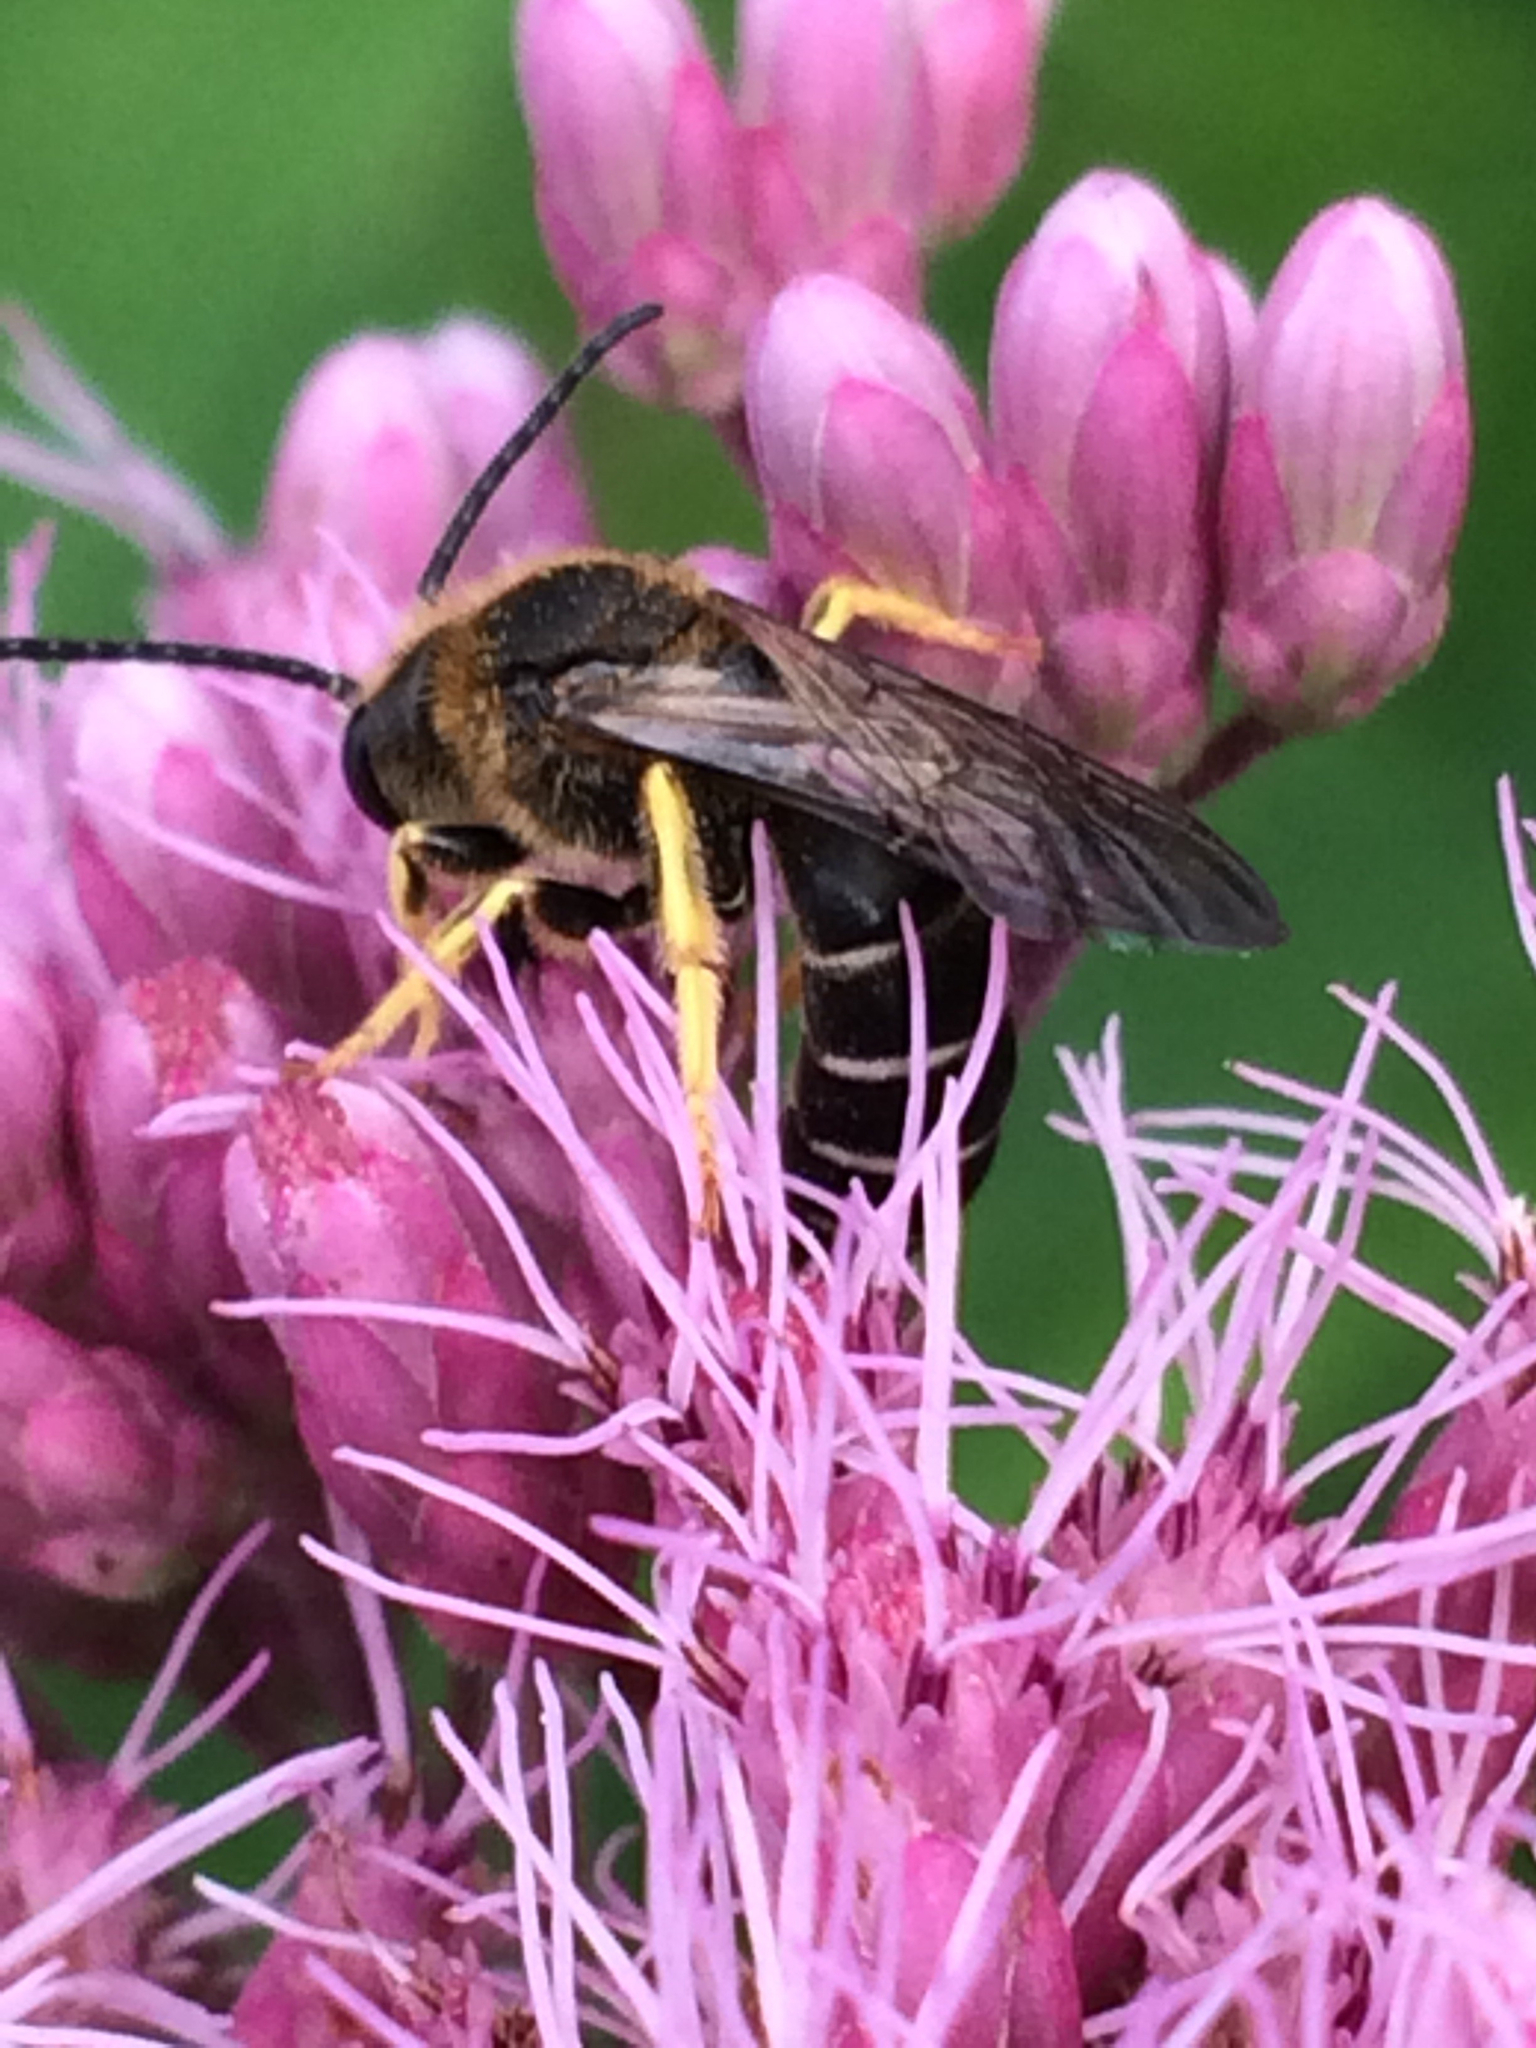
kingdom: Animalia
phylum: Arthropoda
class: Insecta
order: Hymenoptera
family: Halictidae
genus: Halictus
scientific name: Halictus rubicundus
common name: Orange-legged furrow bee
